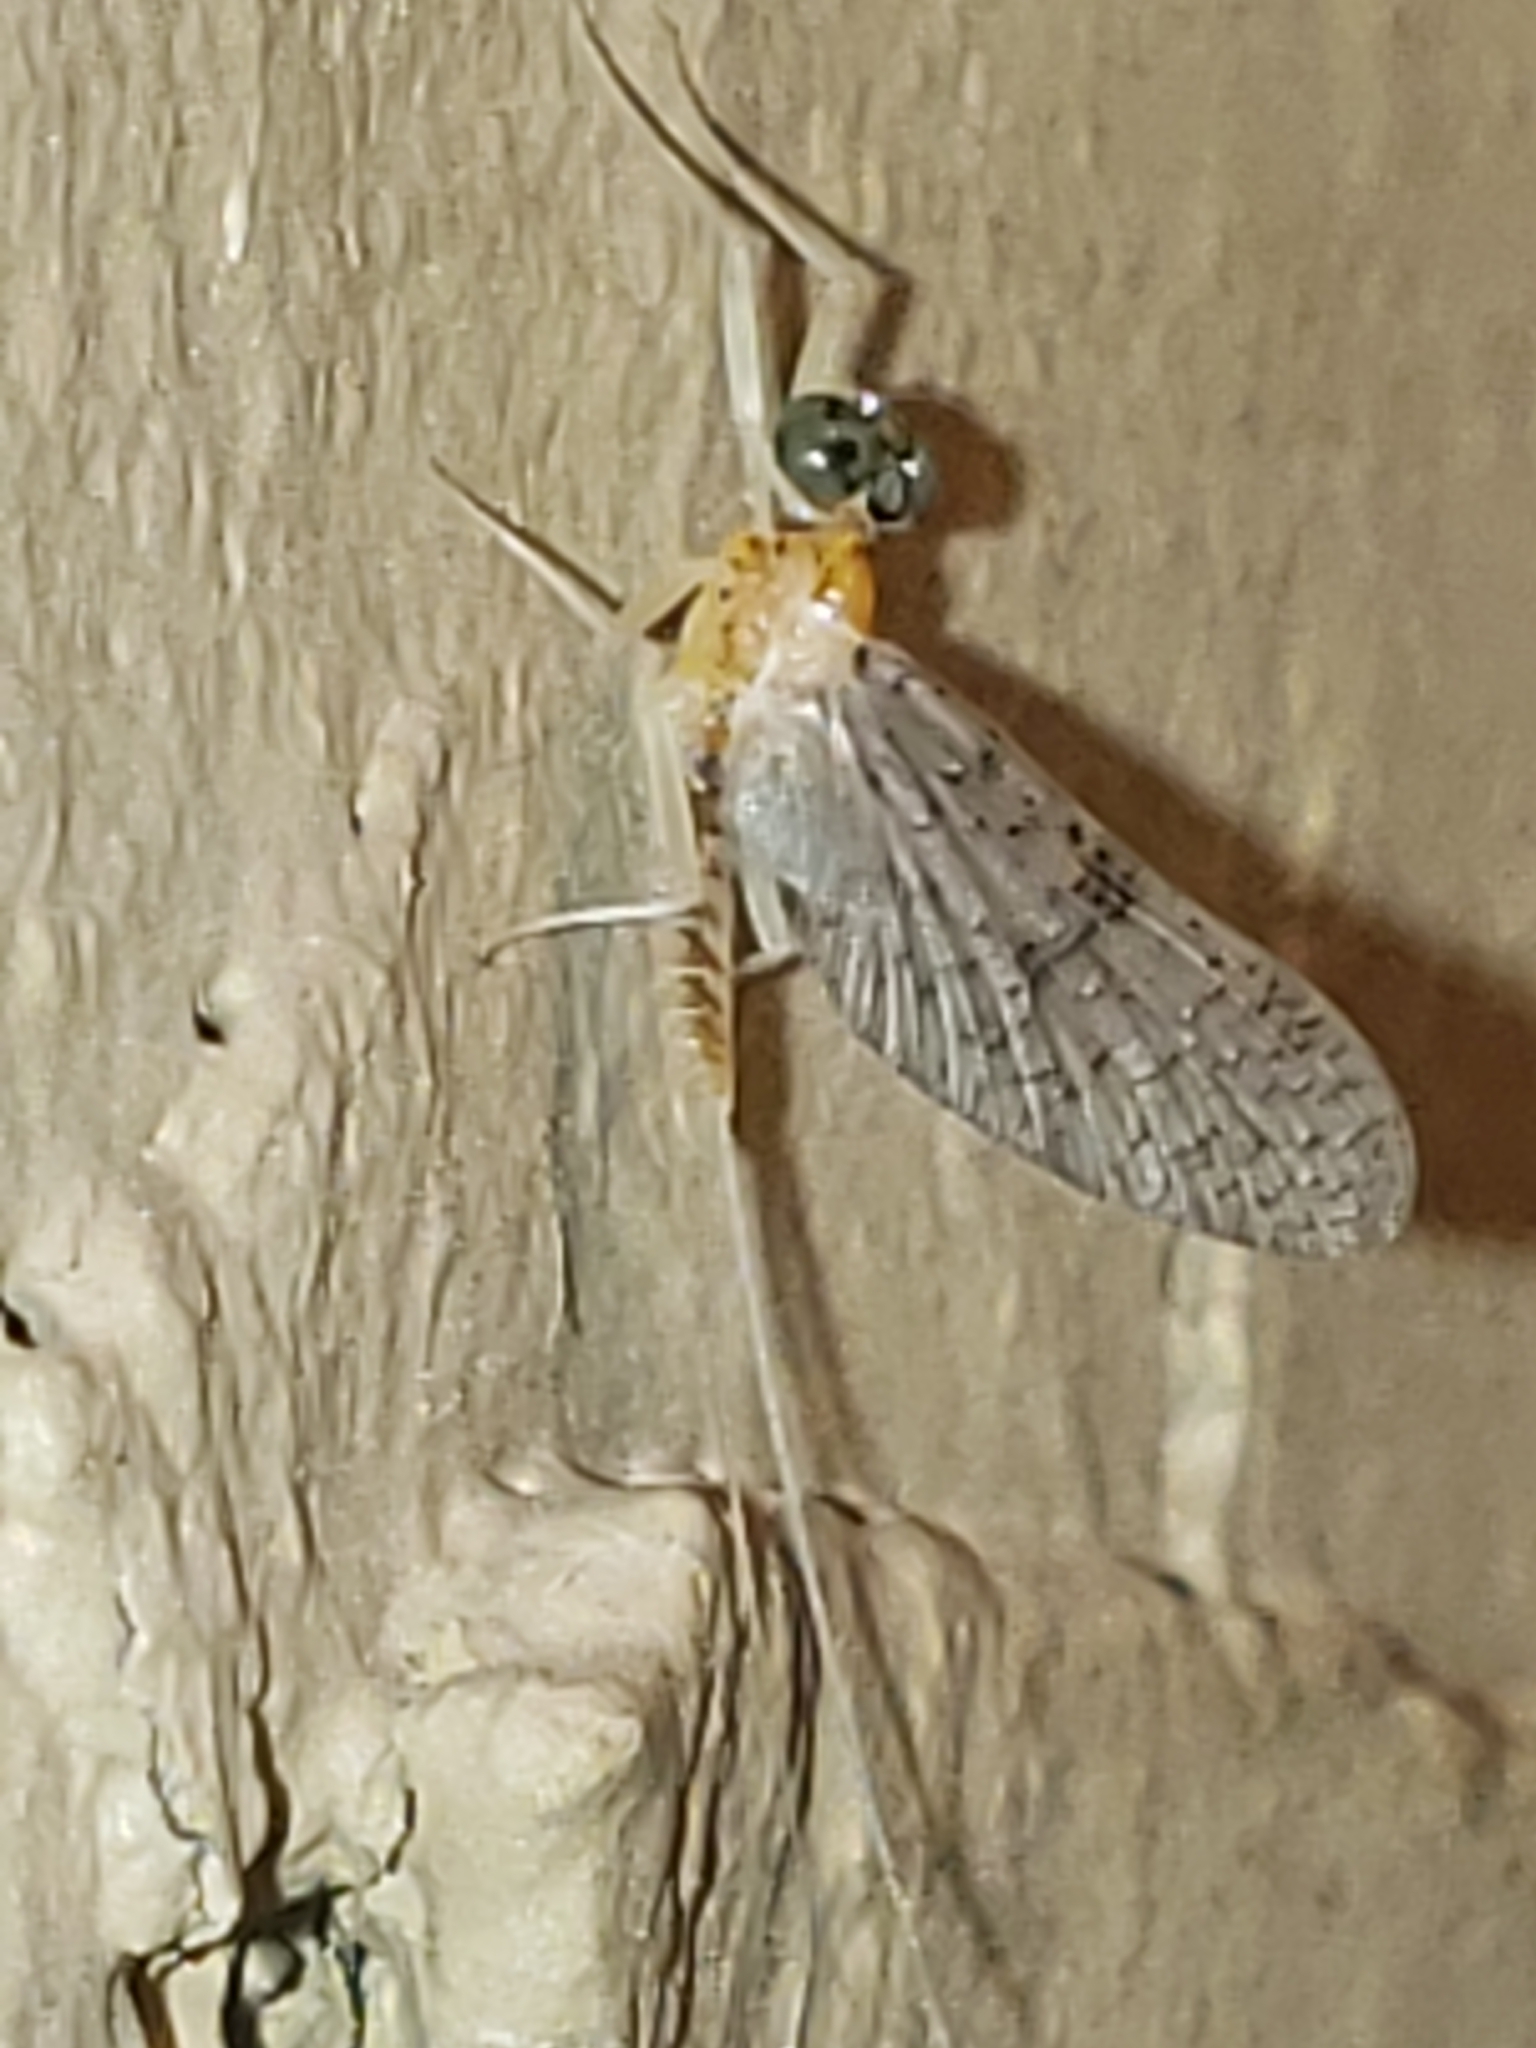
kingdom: Animalia
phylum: Arthropoda
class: Insecta
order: Ephemeroptera
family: Heptageniidae
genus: Leucrocuta
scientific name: Leucrocuta umbratica
